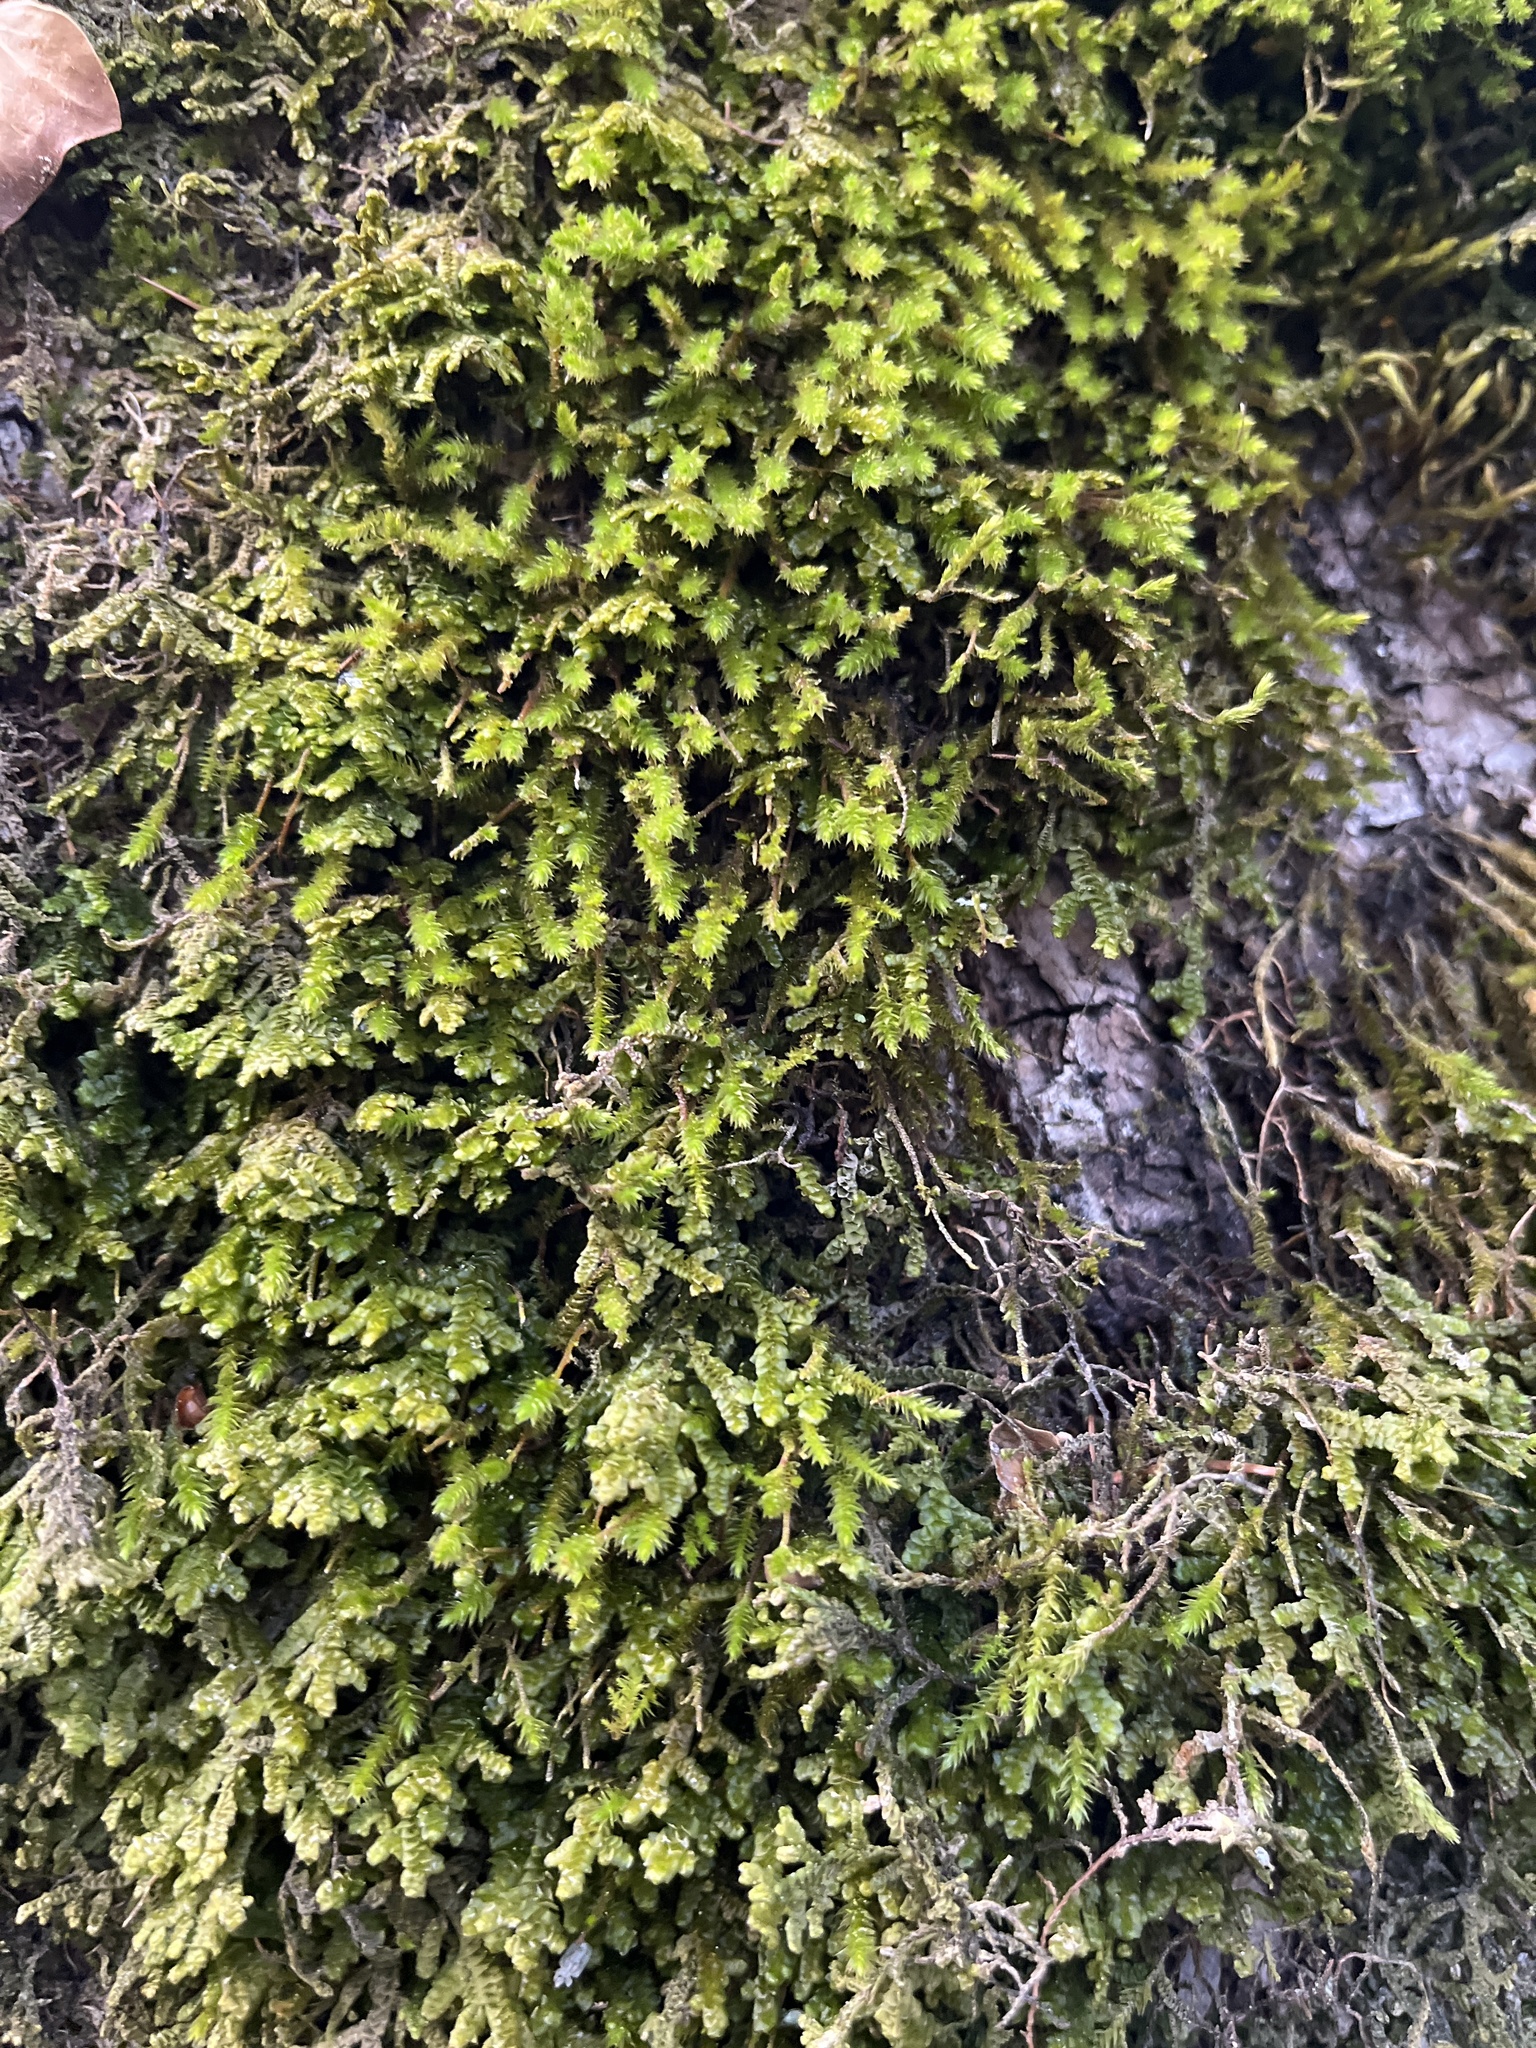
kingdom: Plantae
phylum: Marchantiophyta
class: Jungermanniopsida
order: Porellales
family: Porellaceae
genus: Porella
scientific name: Porella platyphylla
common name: Wall scalewort
